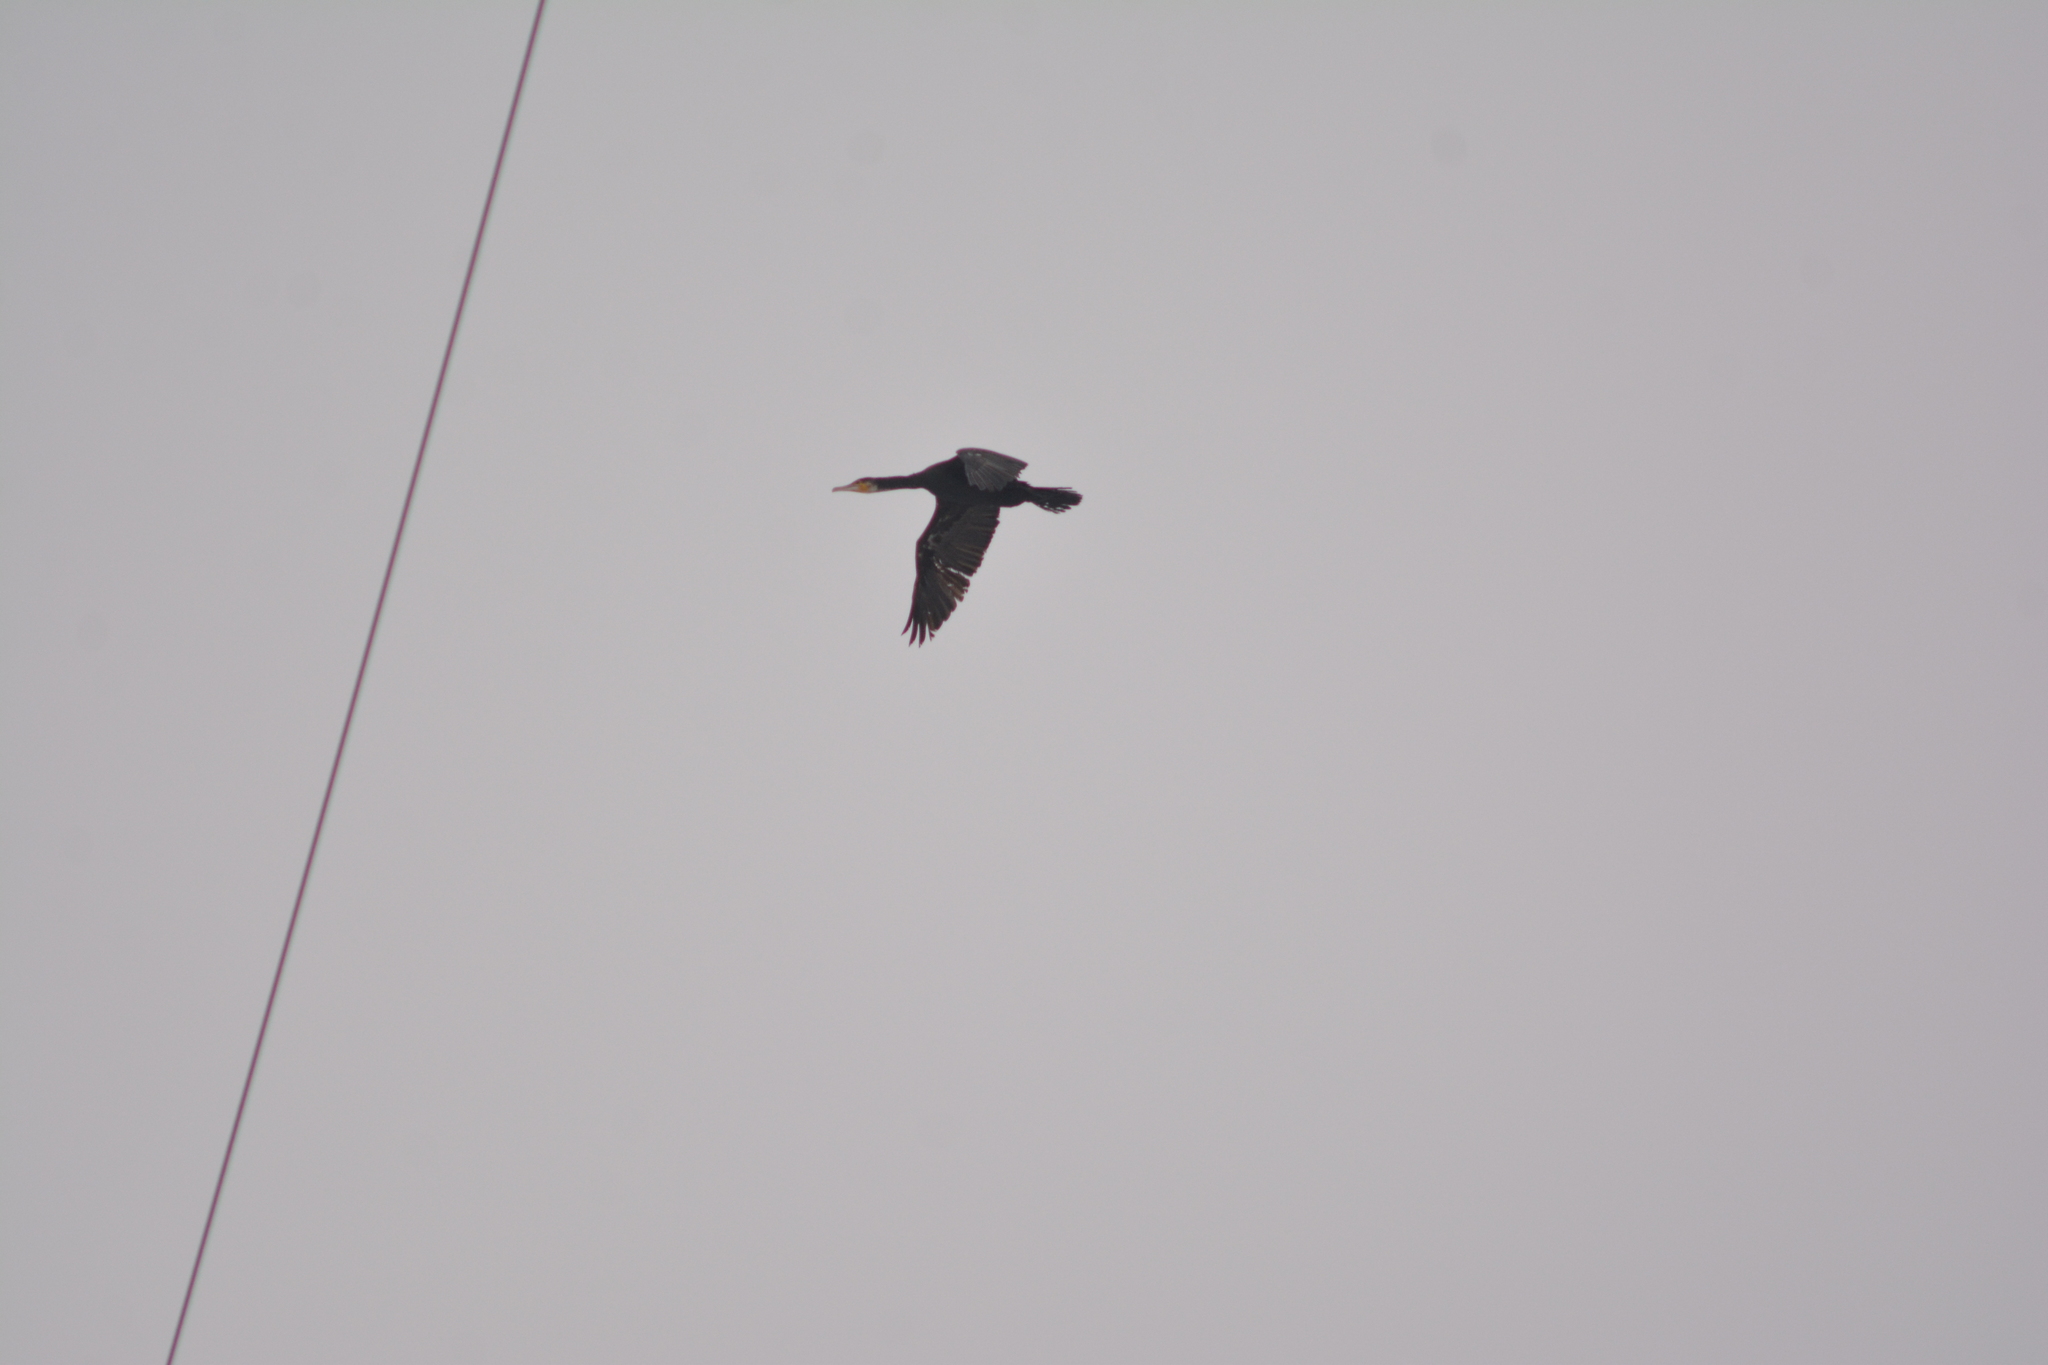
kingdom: Animalia
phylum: Chordata
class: Aves
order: Suliformes
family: Phalacrocoracidae
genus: Phalacrocorax
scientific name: Phalacrocorax carbo
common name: Great cormorant
